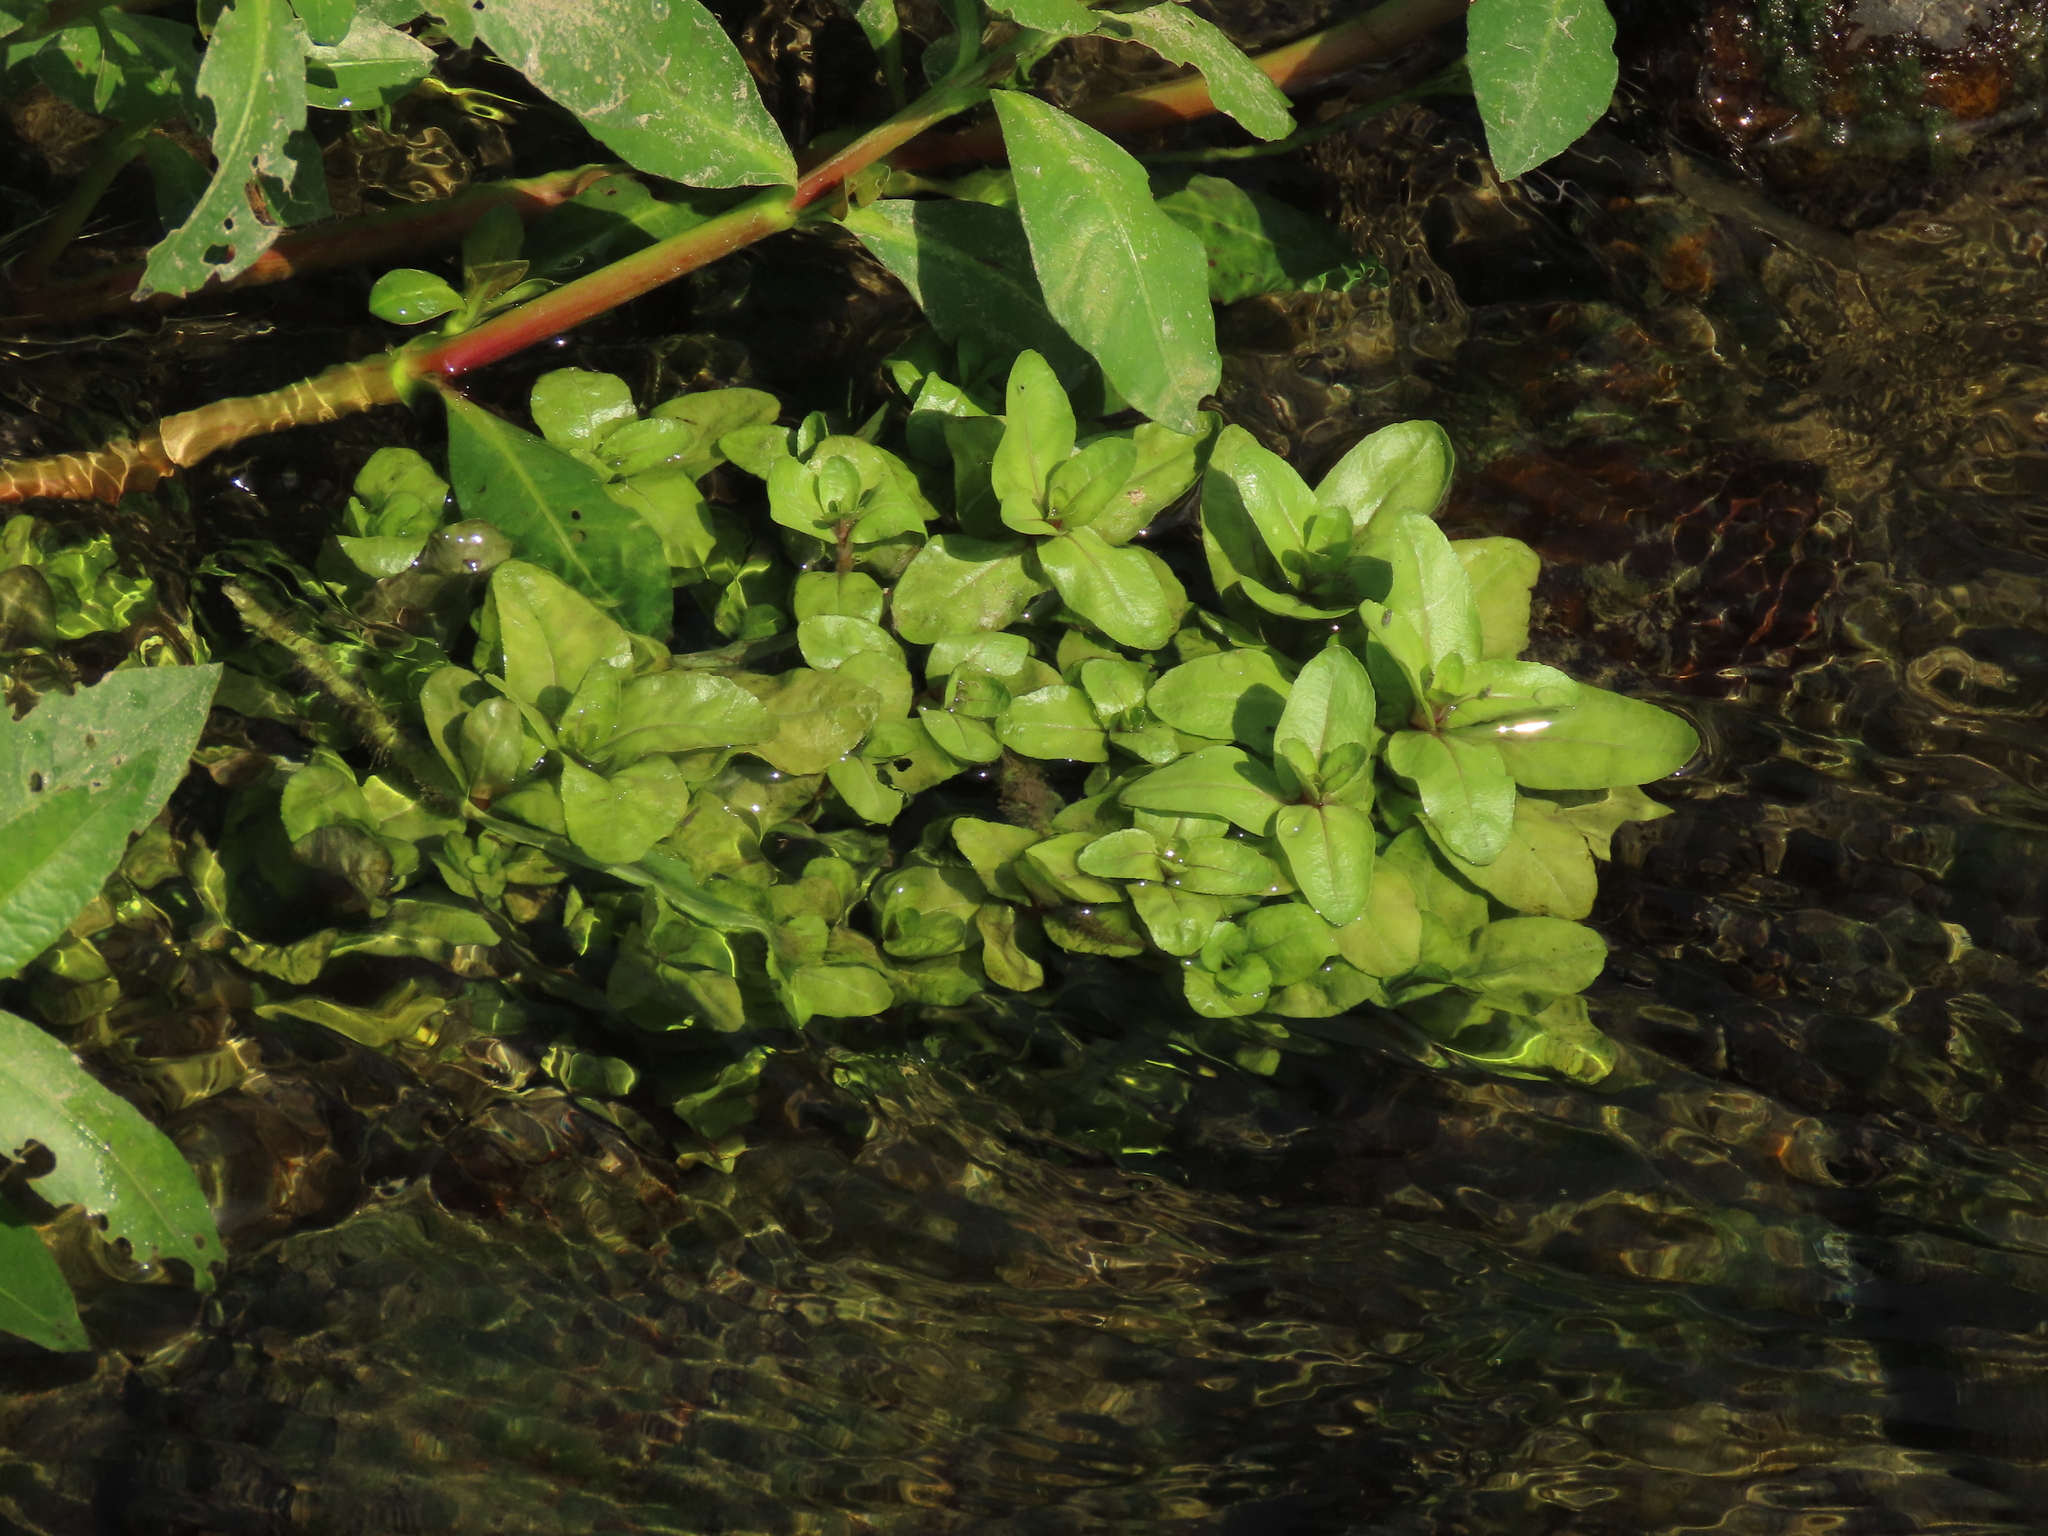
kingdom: Plantae
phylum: Tracheophyta
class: Magnoliopsida
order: Lamiales
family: Plantaginaceae
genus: Veronica
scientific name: Veronica undulata
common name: Undulate speedwell
